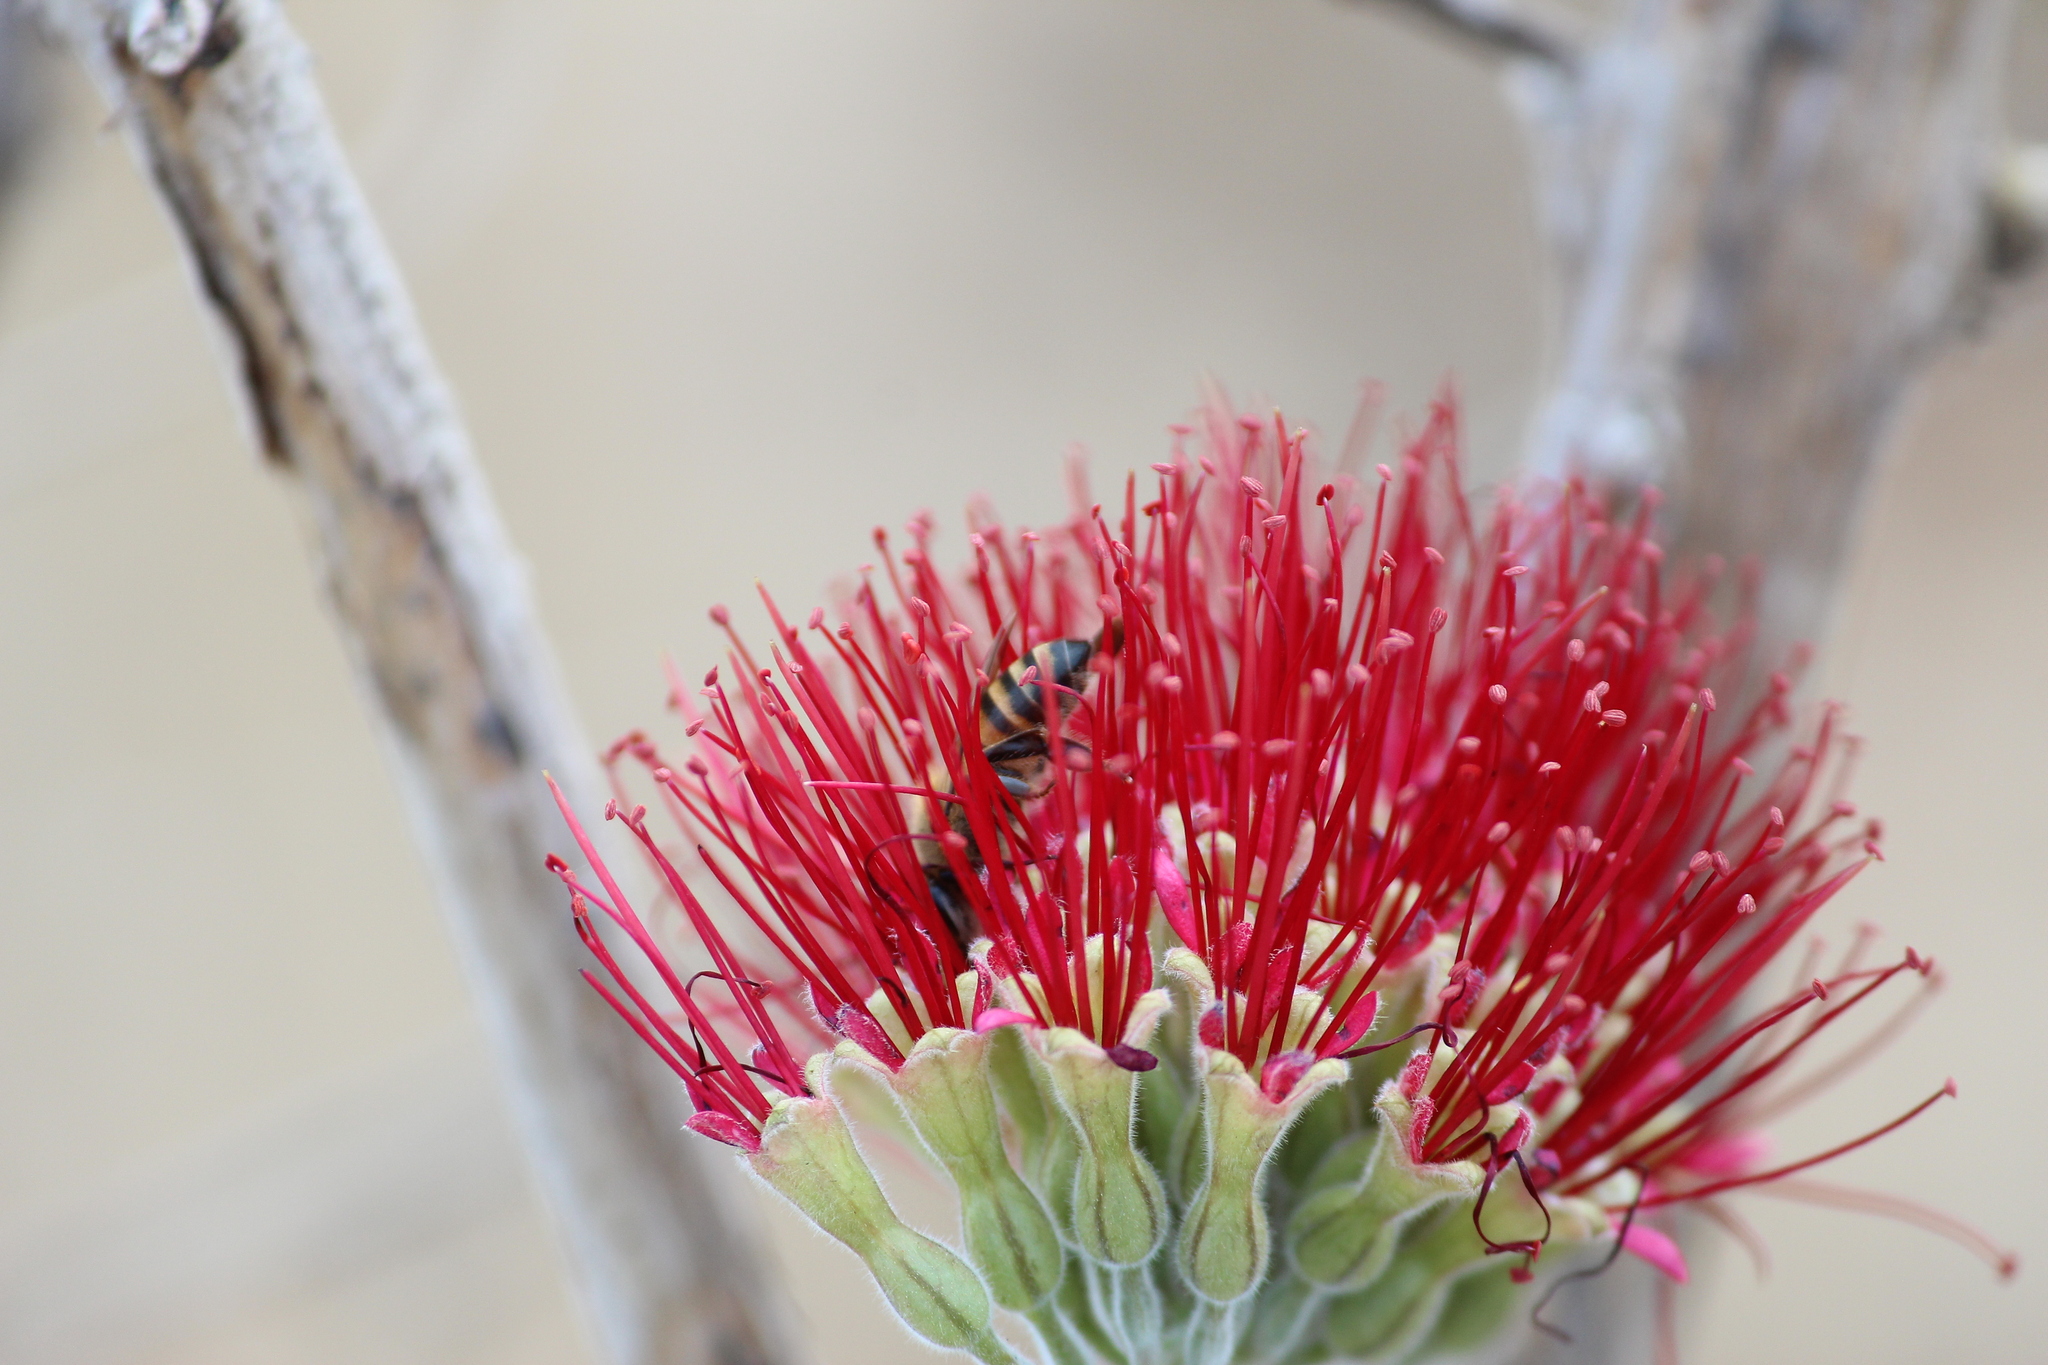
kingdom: Animalia
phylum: Arthropoda
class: Insecta
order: Hymenoptera
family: Apidae
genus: Apis
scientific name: Apis mellifera
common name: Honey bee
